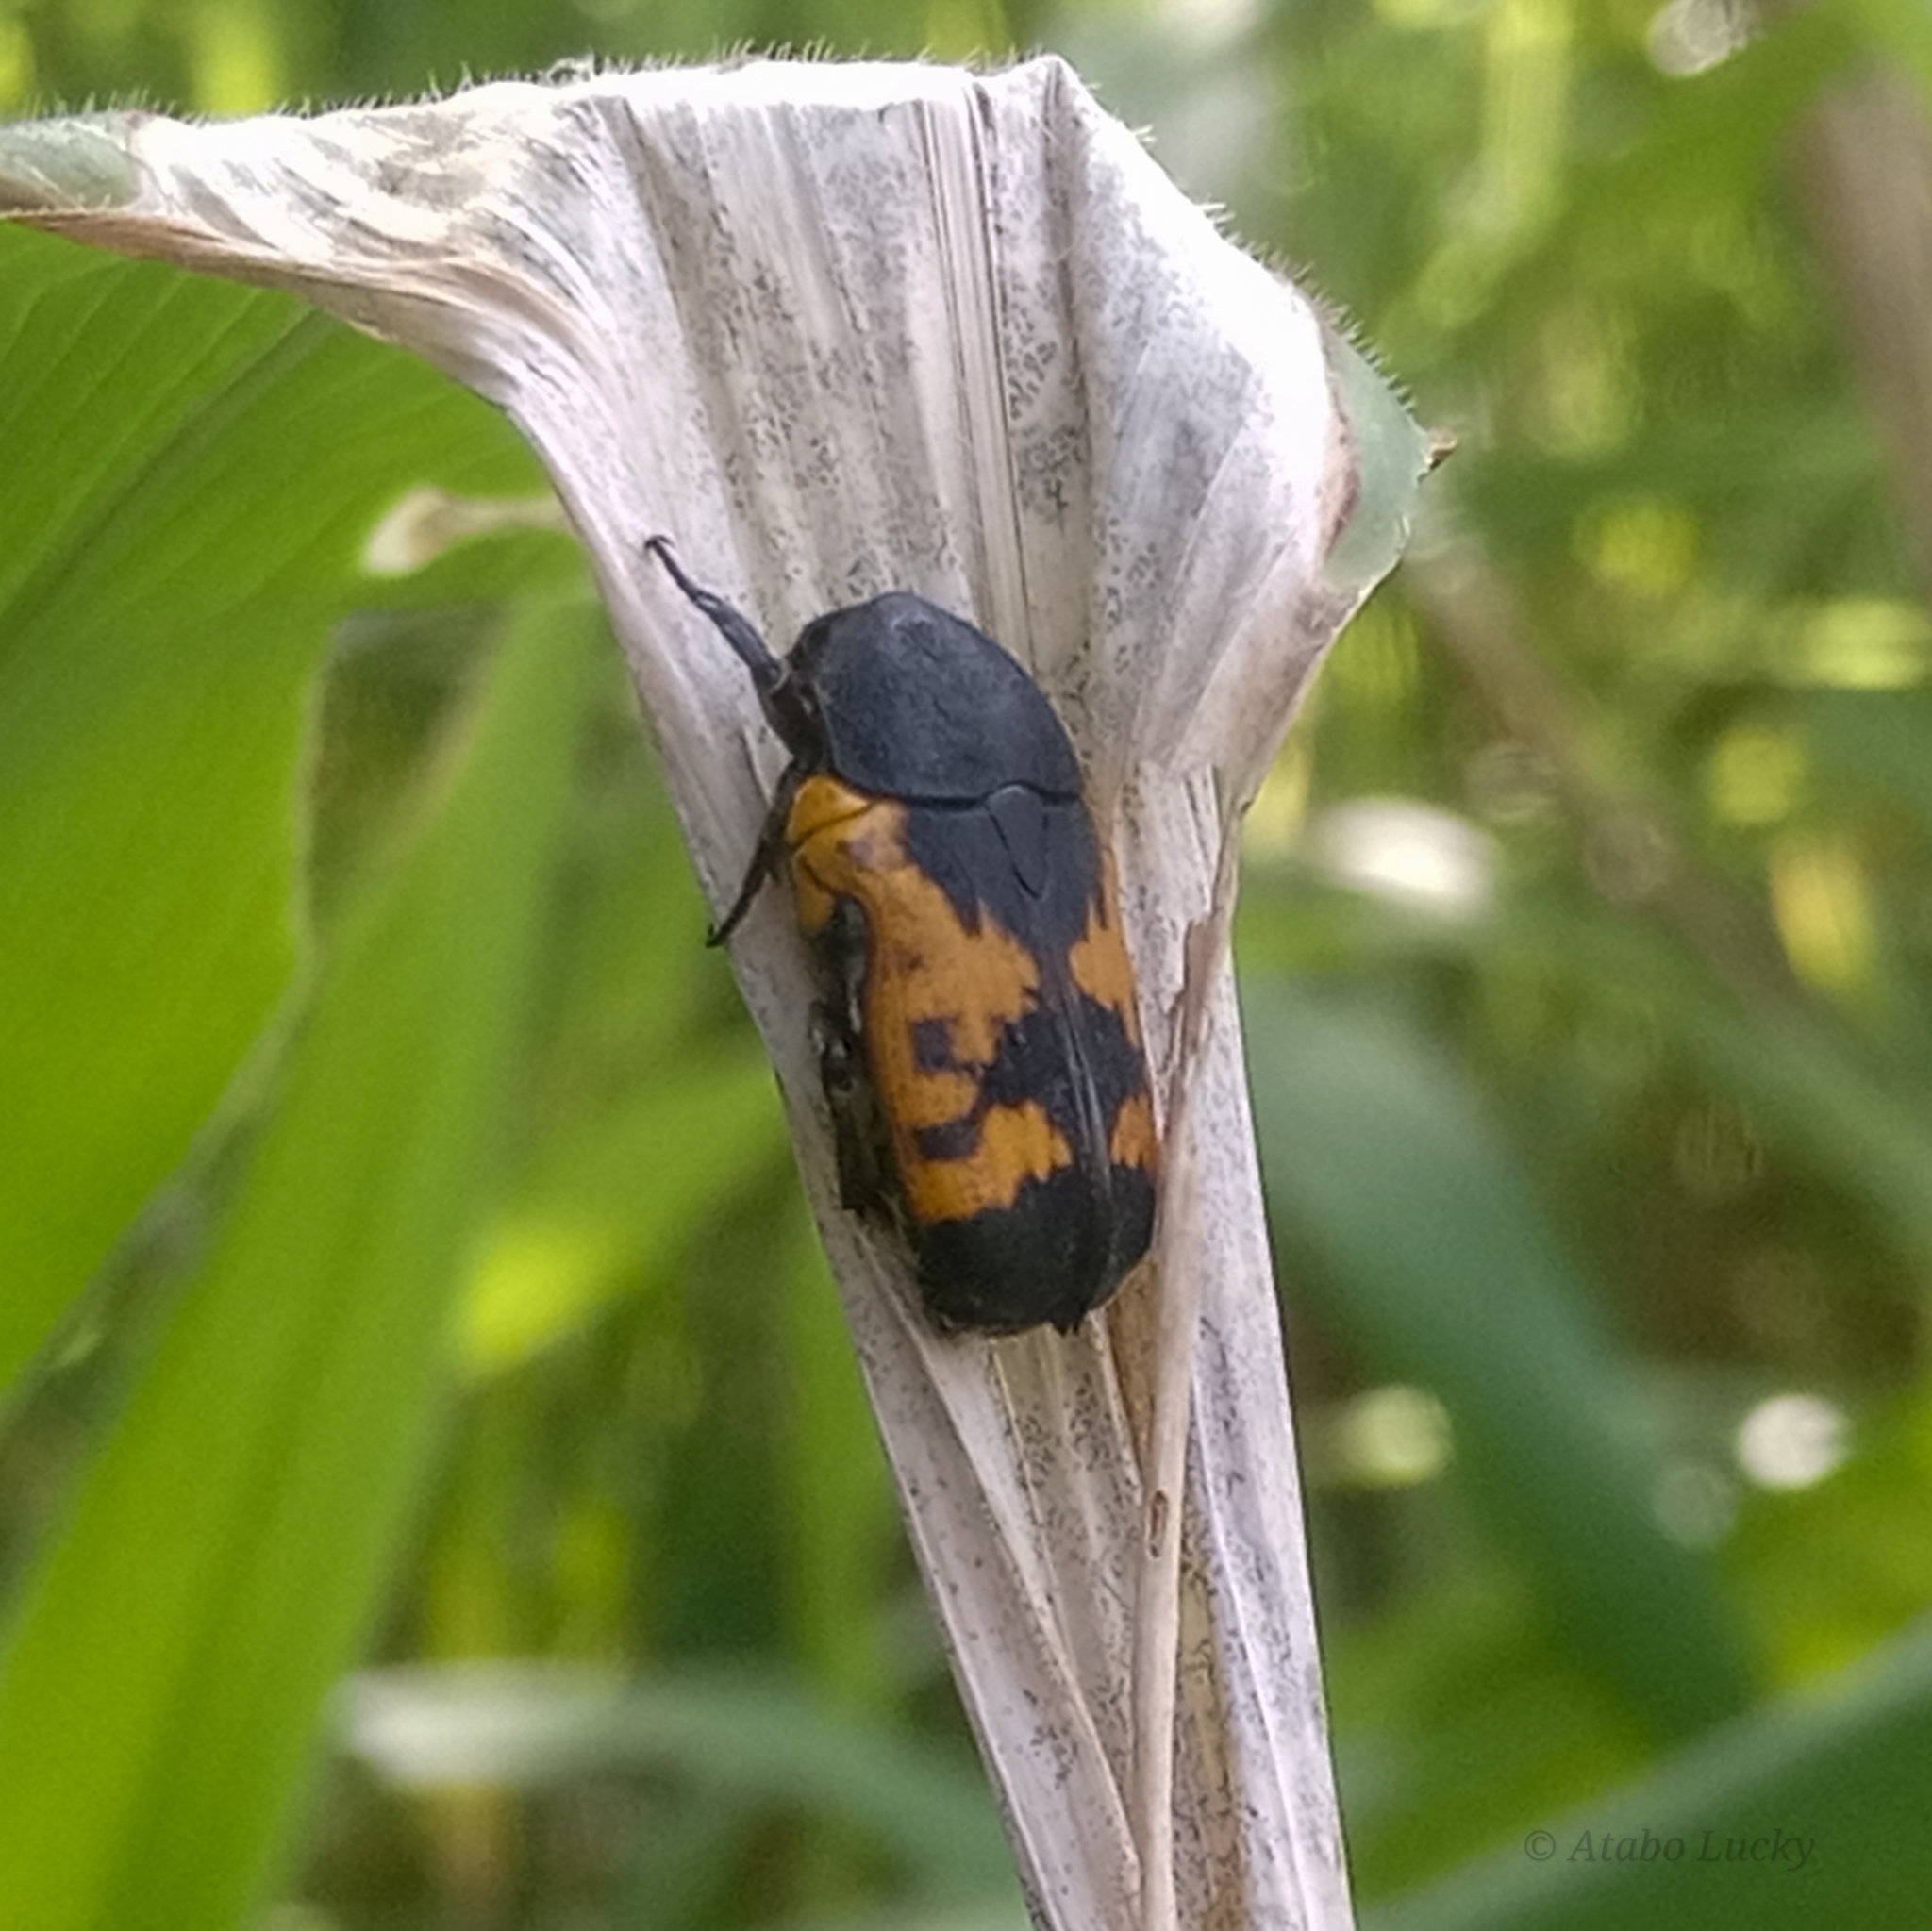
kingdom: Animalia
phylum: Arthropoda
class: Insecta
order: Coleoptera
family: Scarabaeidae
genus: Gametoides
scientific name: Gametoides sanguinolenta
